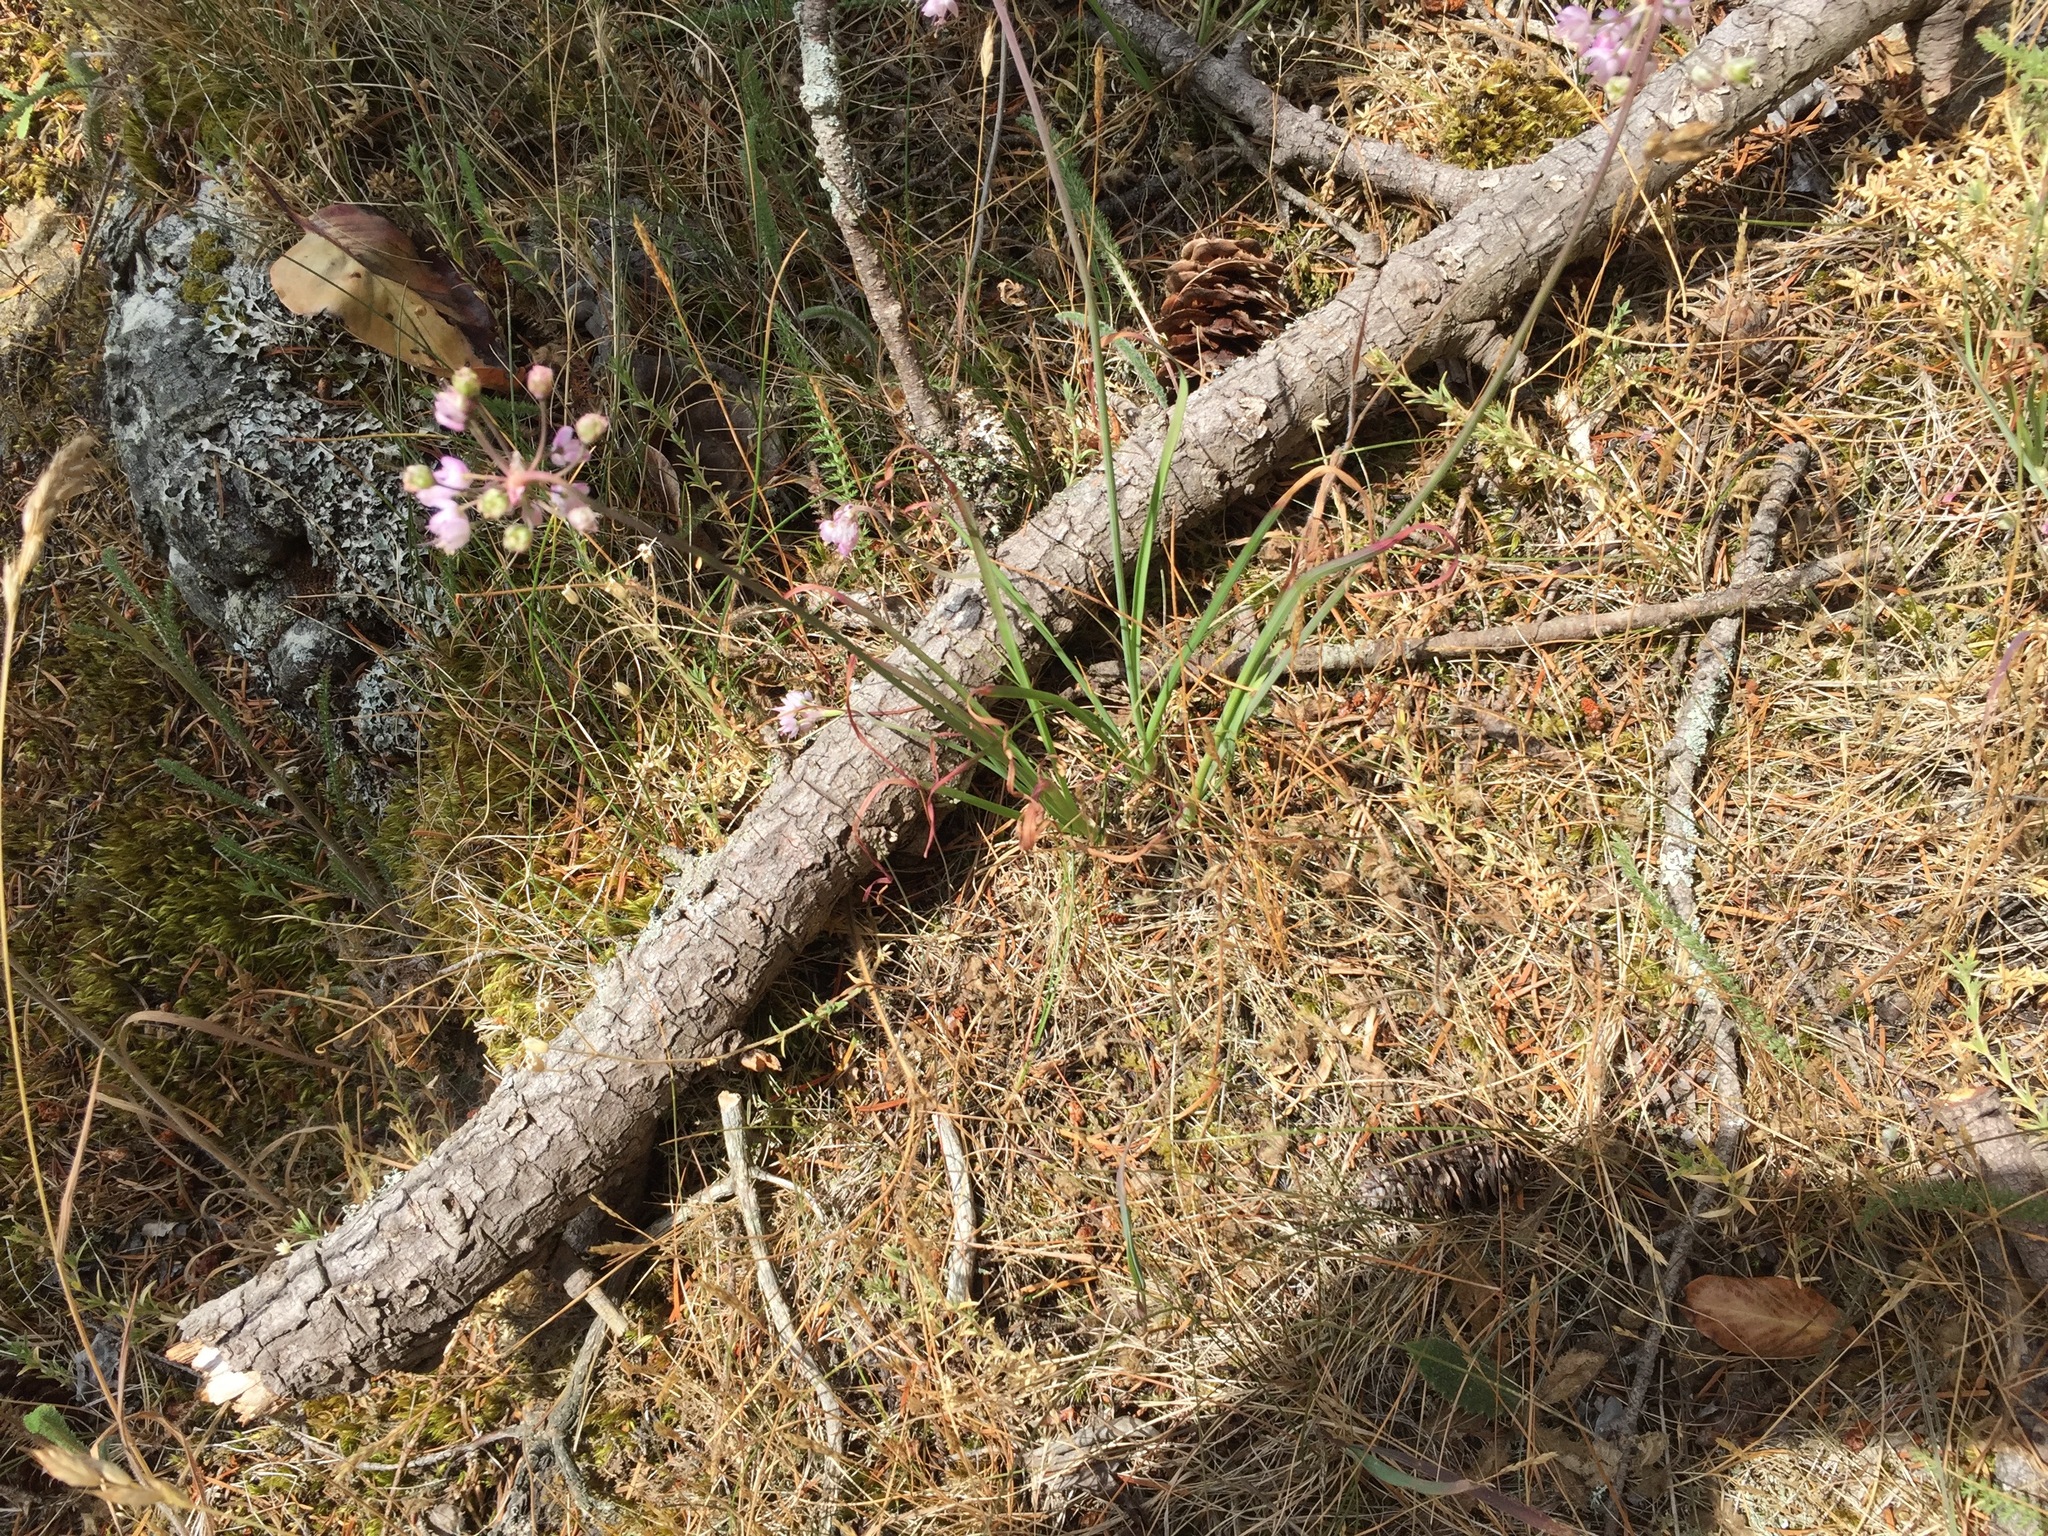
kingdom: Plantae
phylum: Tracheophyta
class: Liliopsida
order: Asparagales
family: Amaryllidaceae
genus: Allium
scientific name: Allium cernuum
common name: Nodding onion
